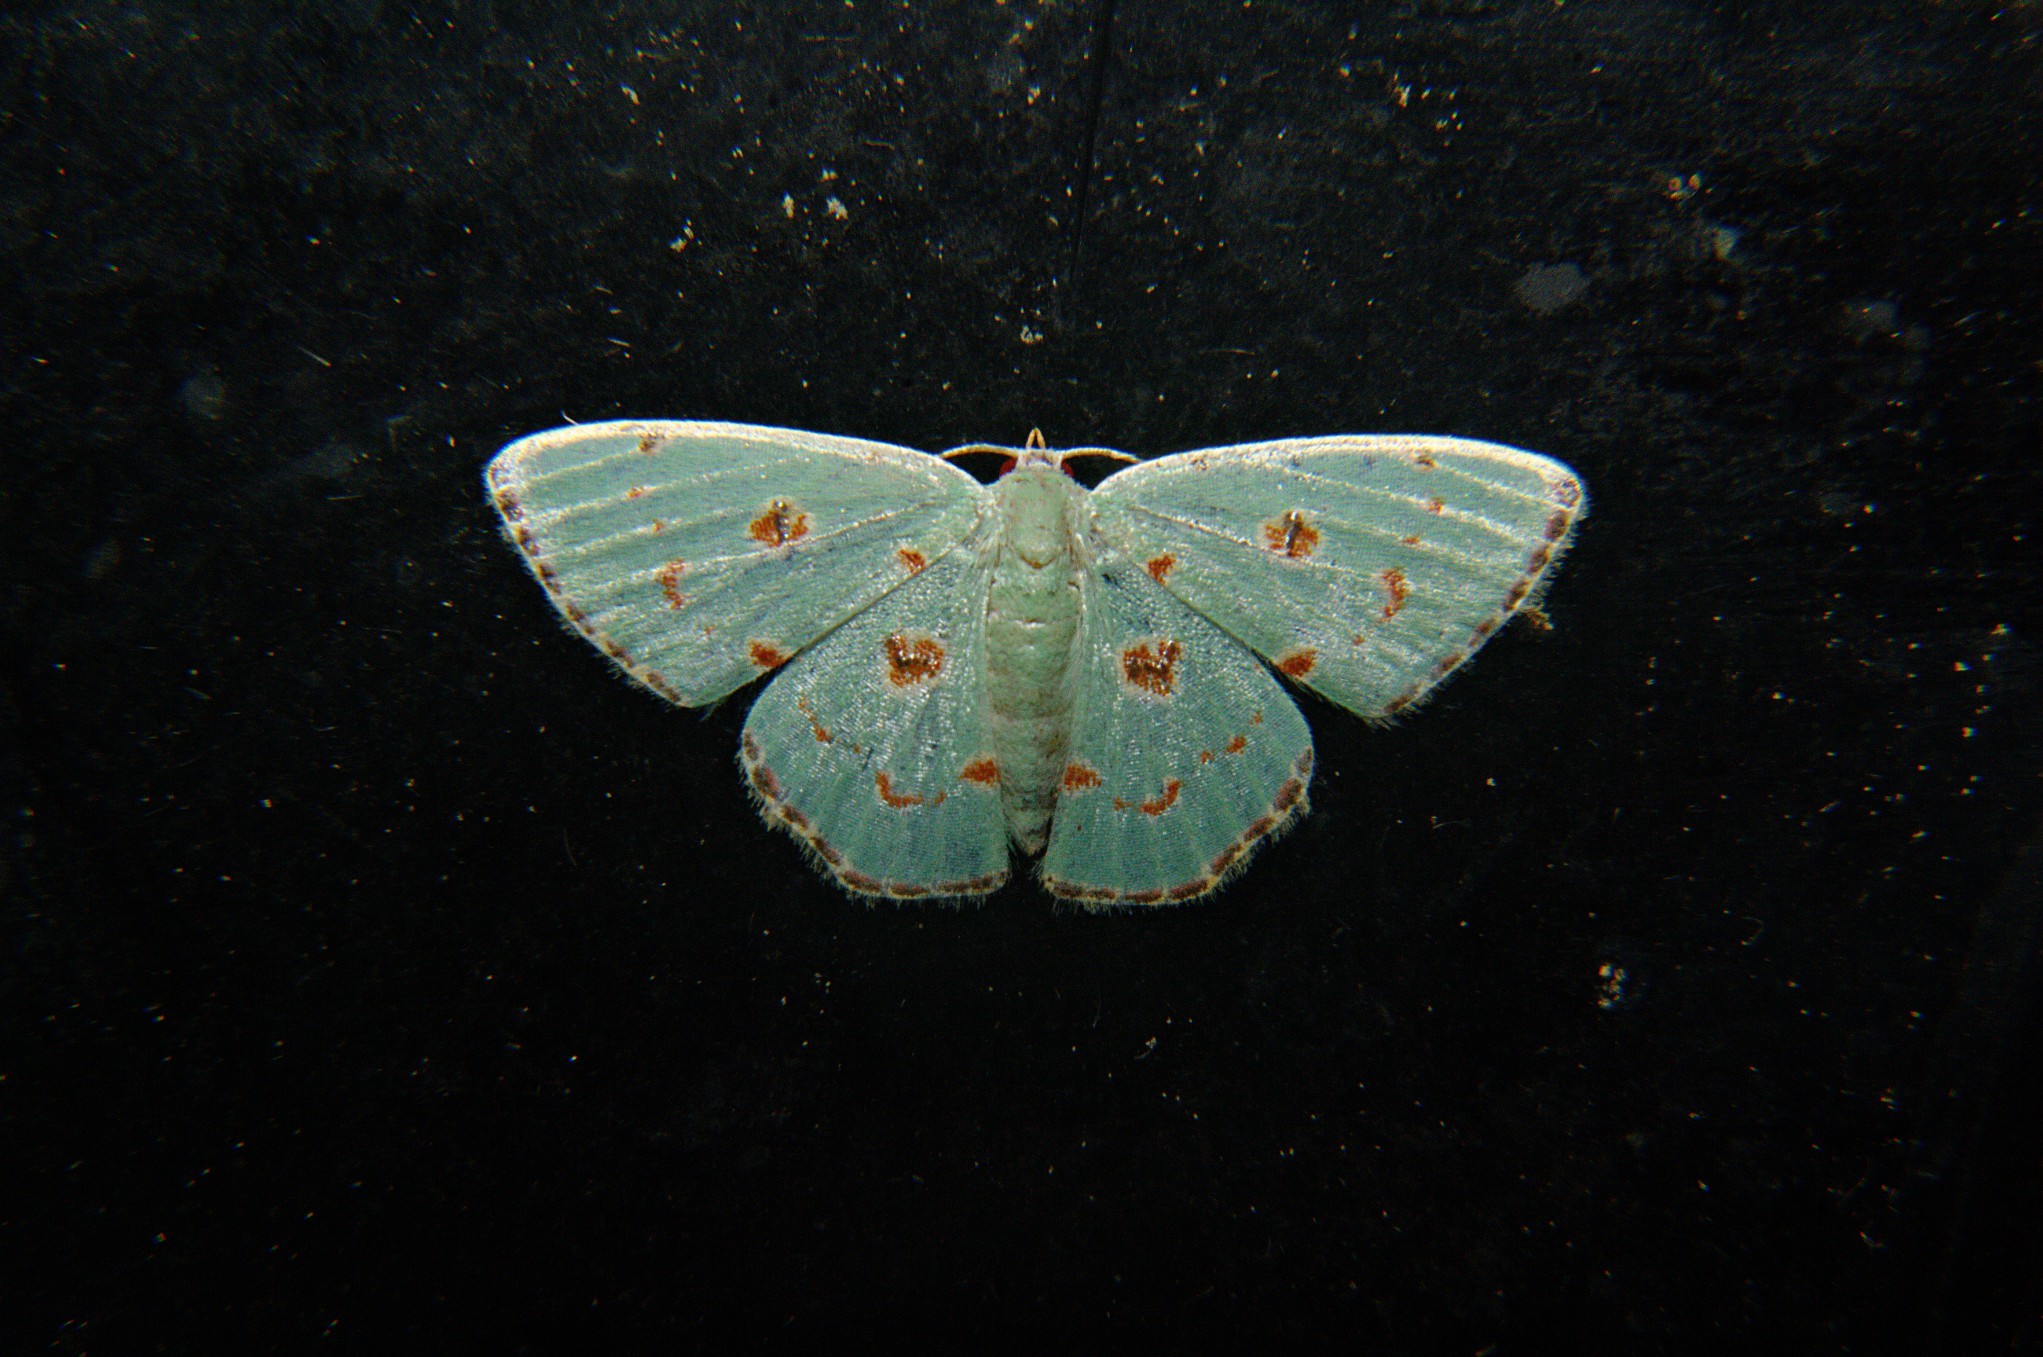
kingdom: Animalia
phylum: Arthropoda
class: Insecta
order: Lepidoptera
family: Geometridae
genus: Comostola
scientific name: Comostola laesaria
